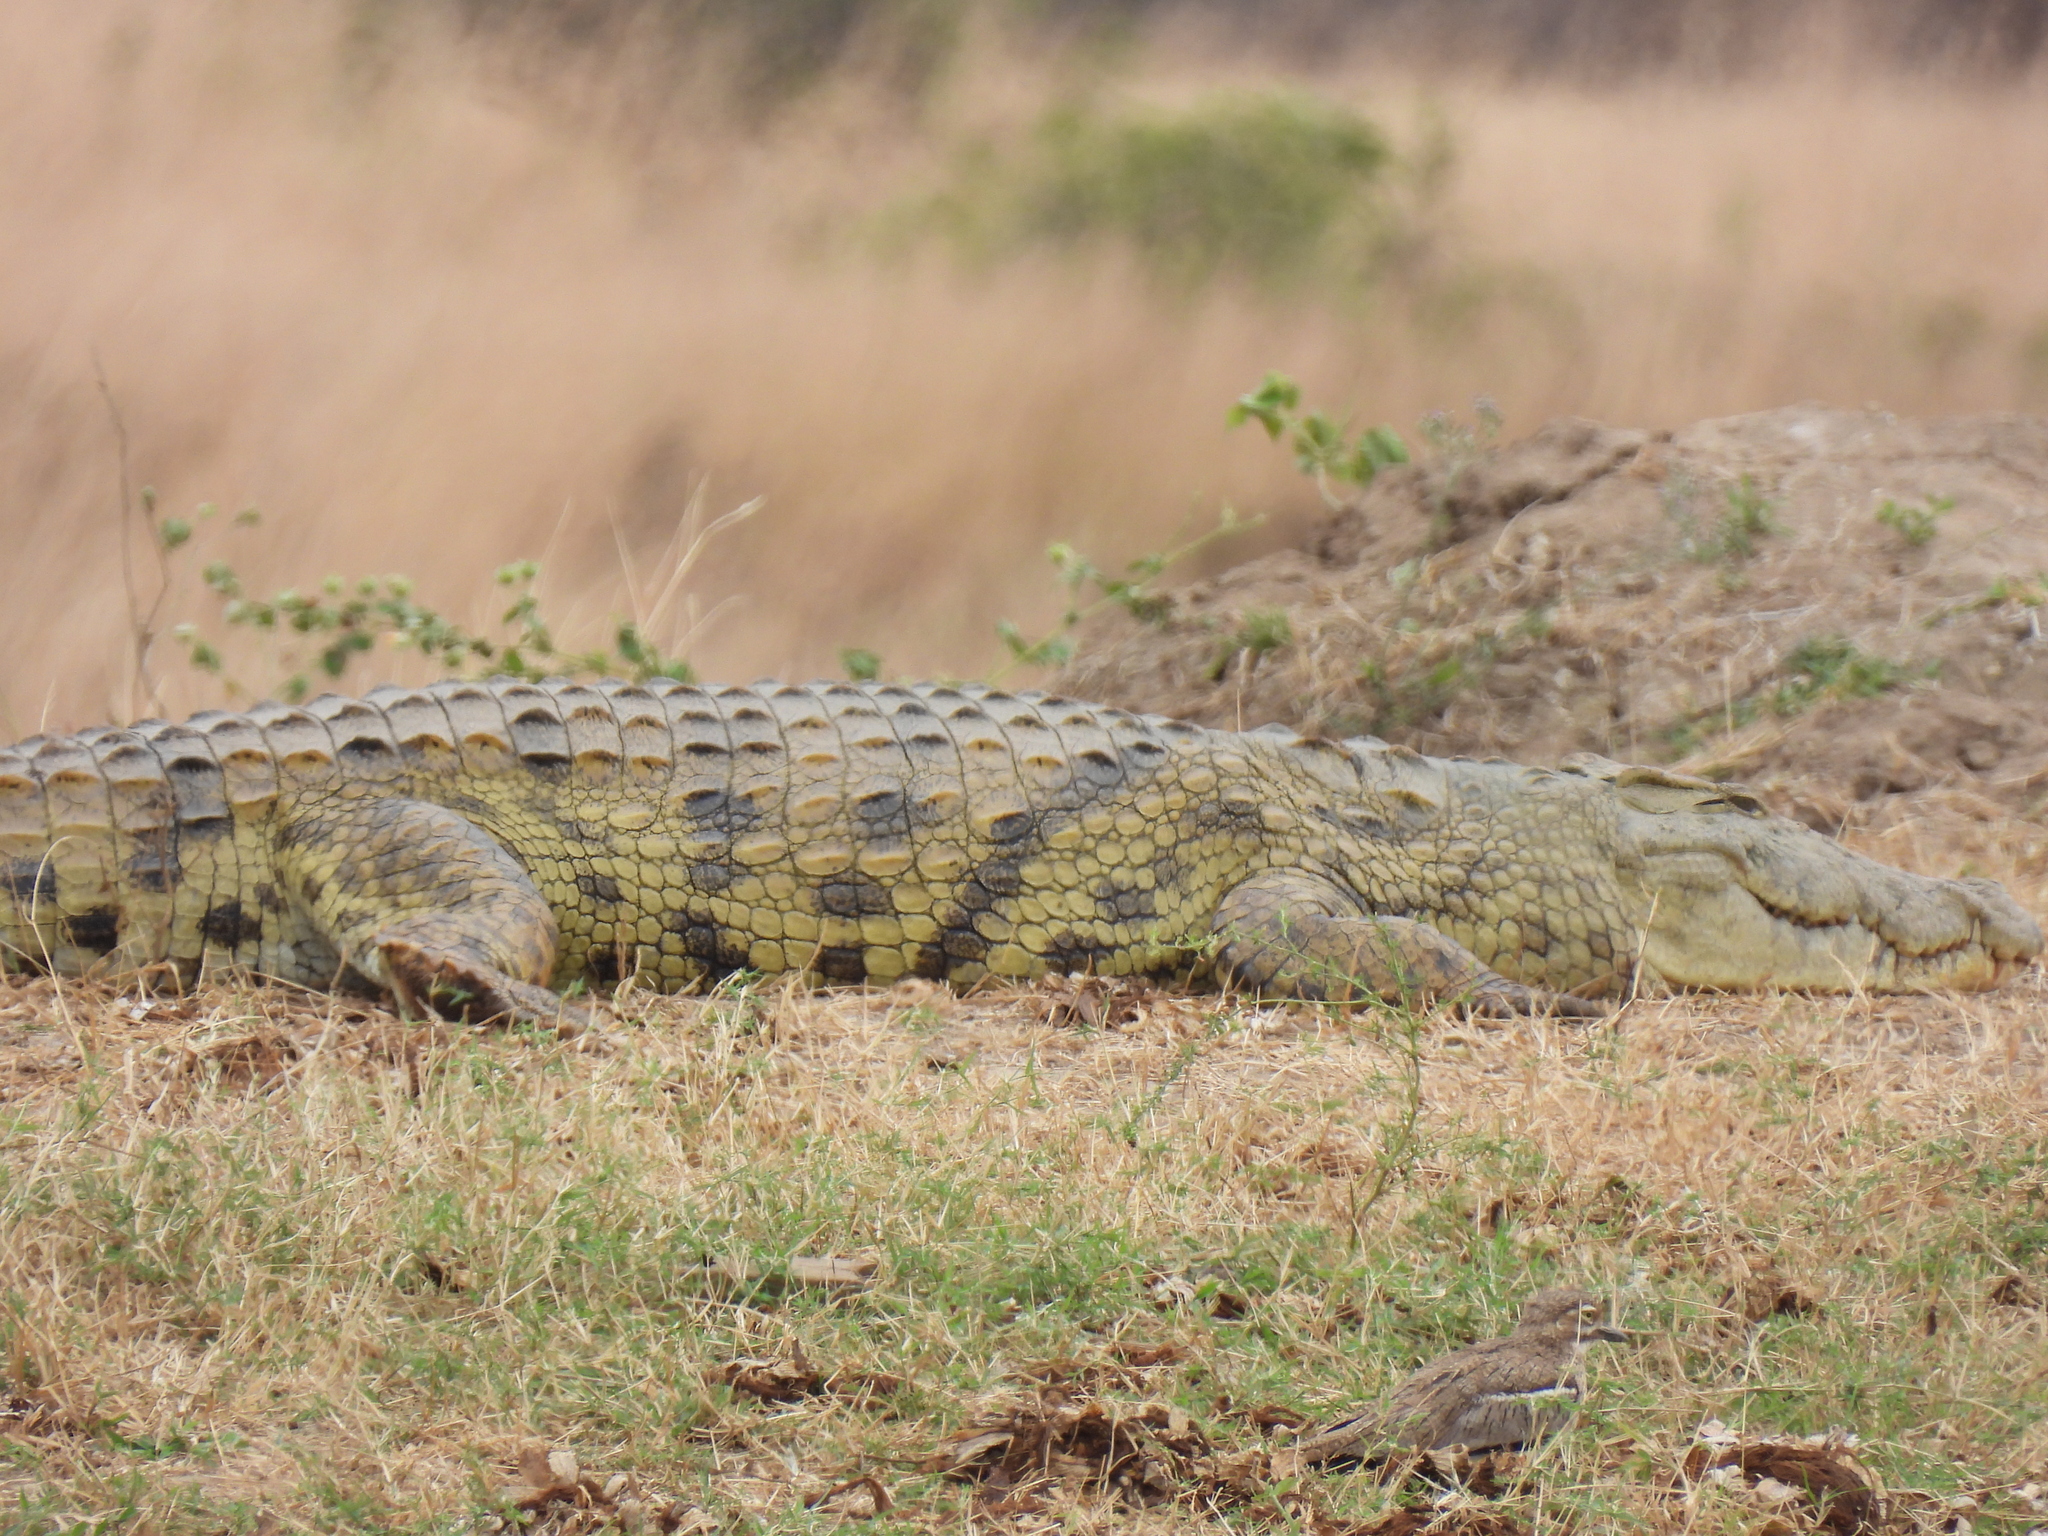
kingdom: Animalia
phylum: Chordata
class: Crocodylia
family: Crocodylidae
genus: Crocodylus
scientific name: Crocodylus niloticus
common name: Nile crocodile
